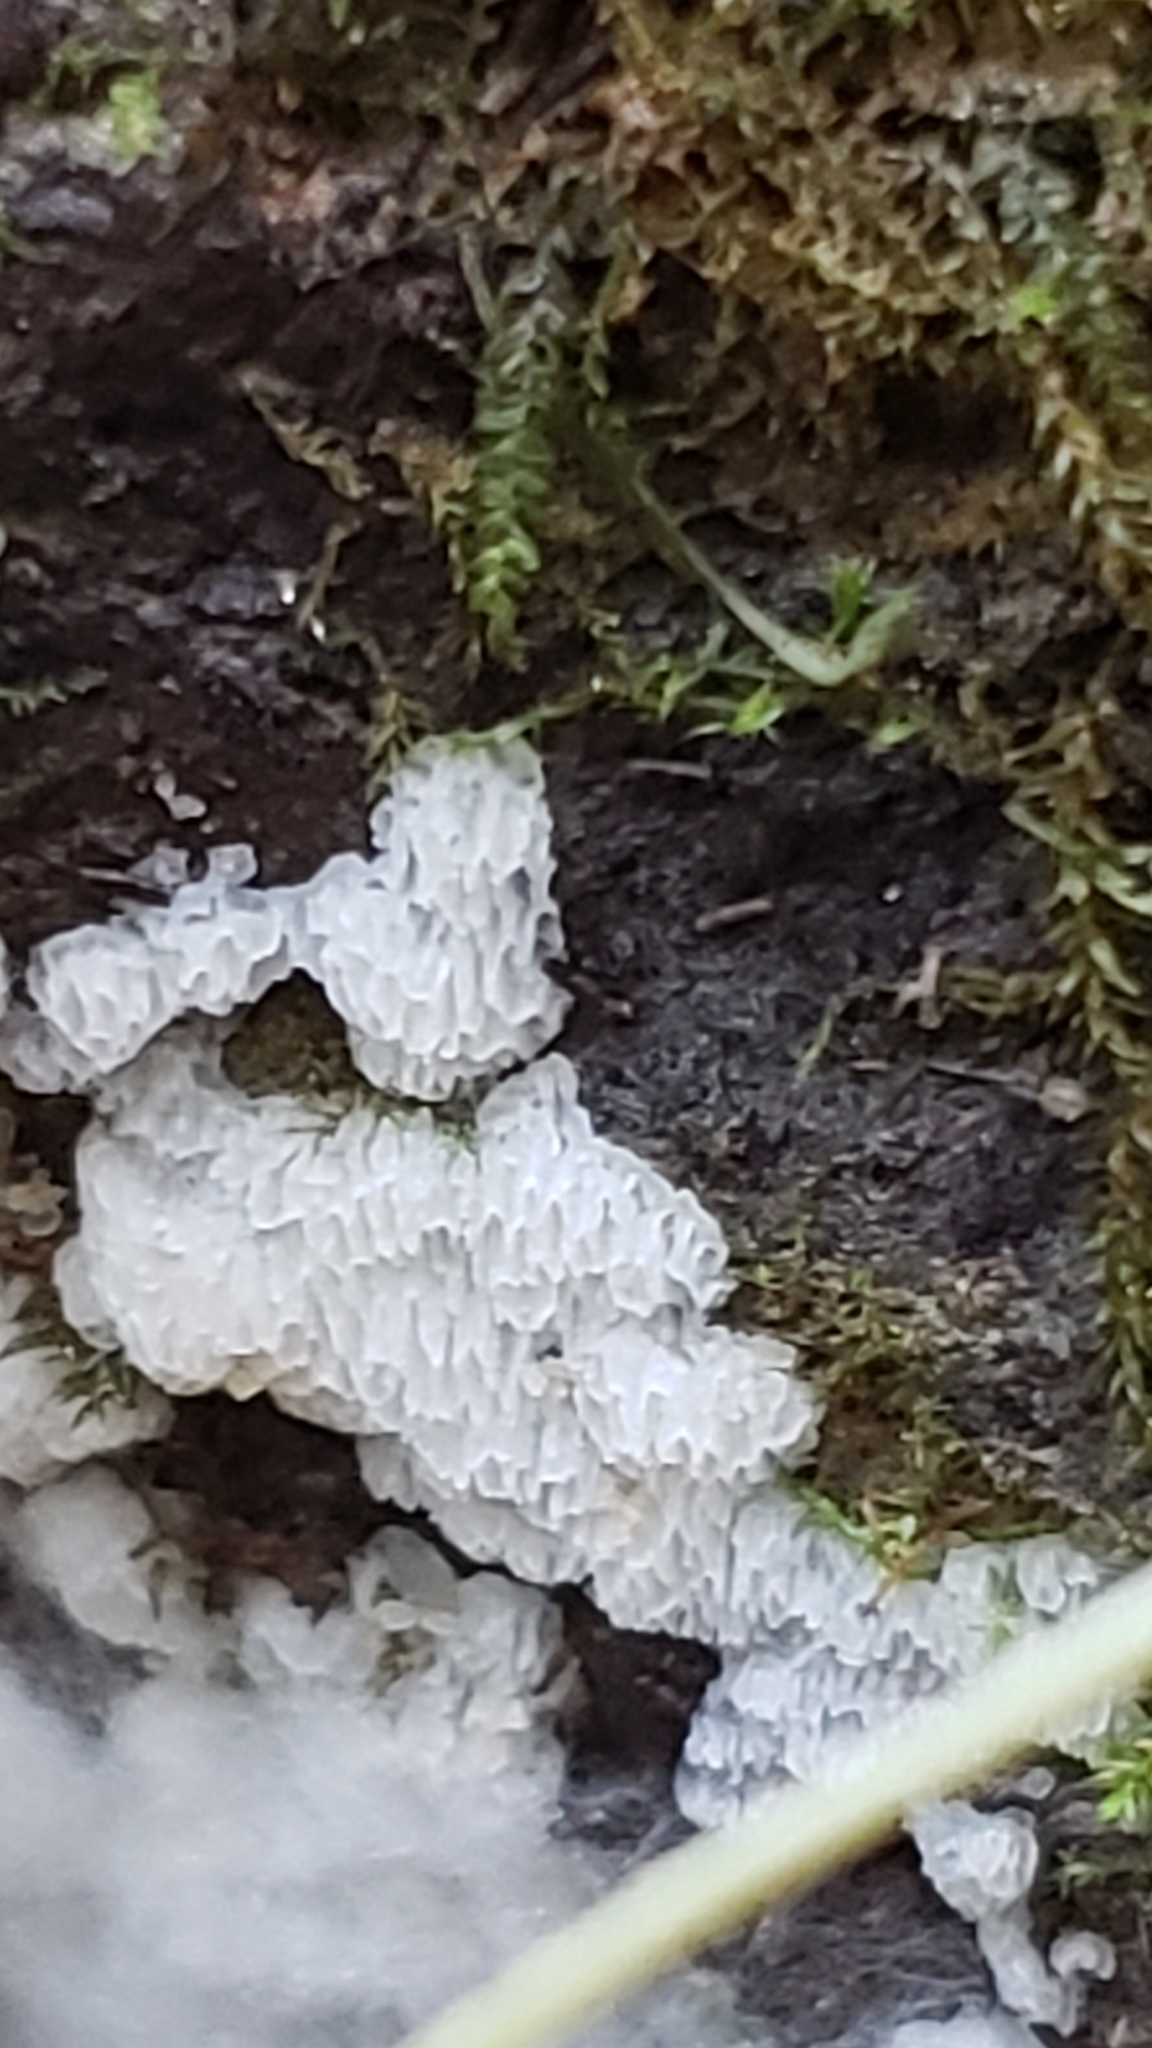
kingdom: Protozoa
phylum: Mycetozoa
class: Protosteliomycetes
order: Ceratiomyxales
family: Ceratiomyxaceae
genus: Ceratiomyxa
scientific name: Ceratiomyxa fruticulosa
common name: Honeycomb coral slime mold
